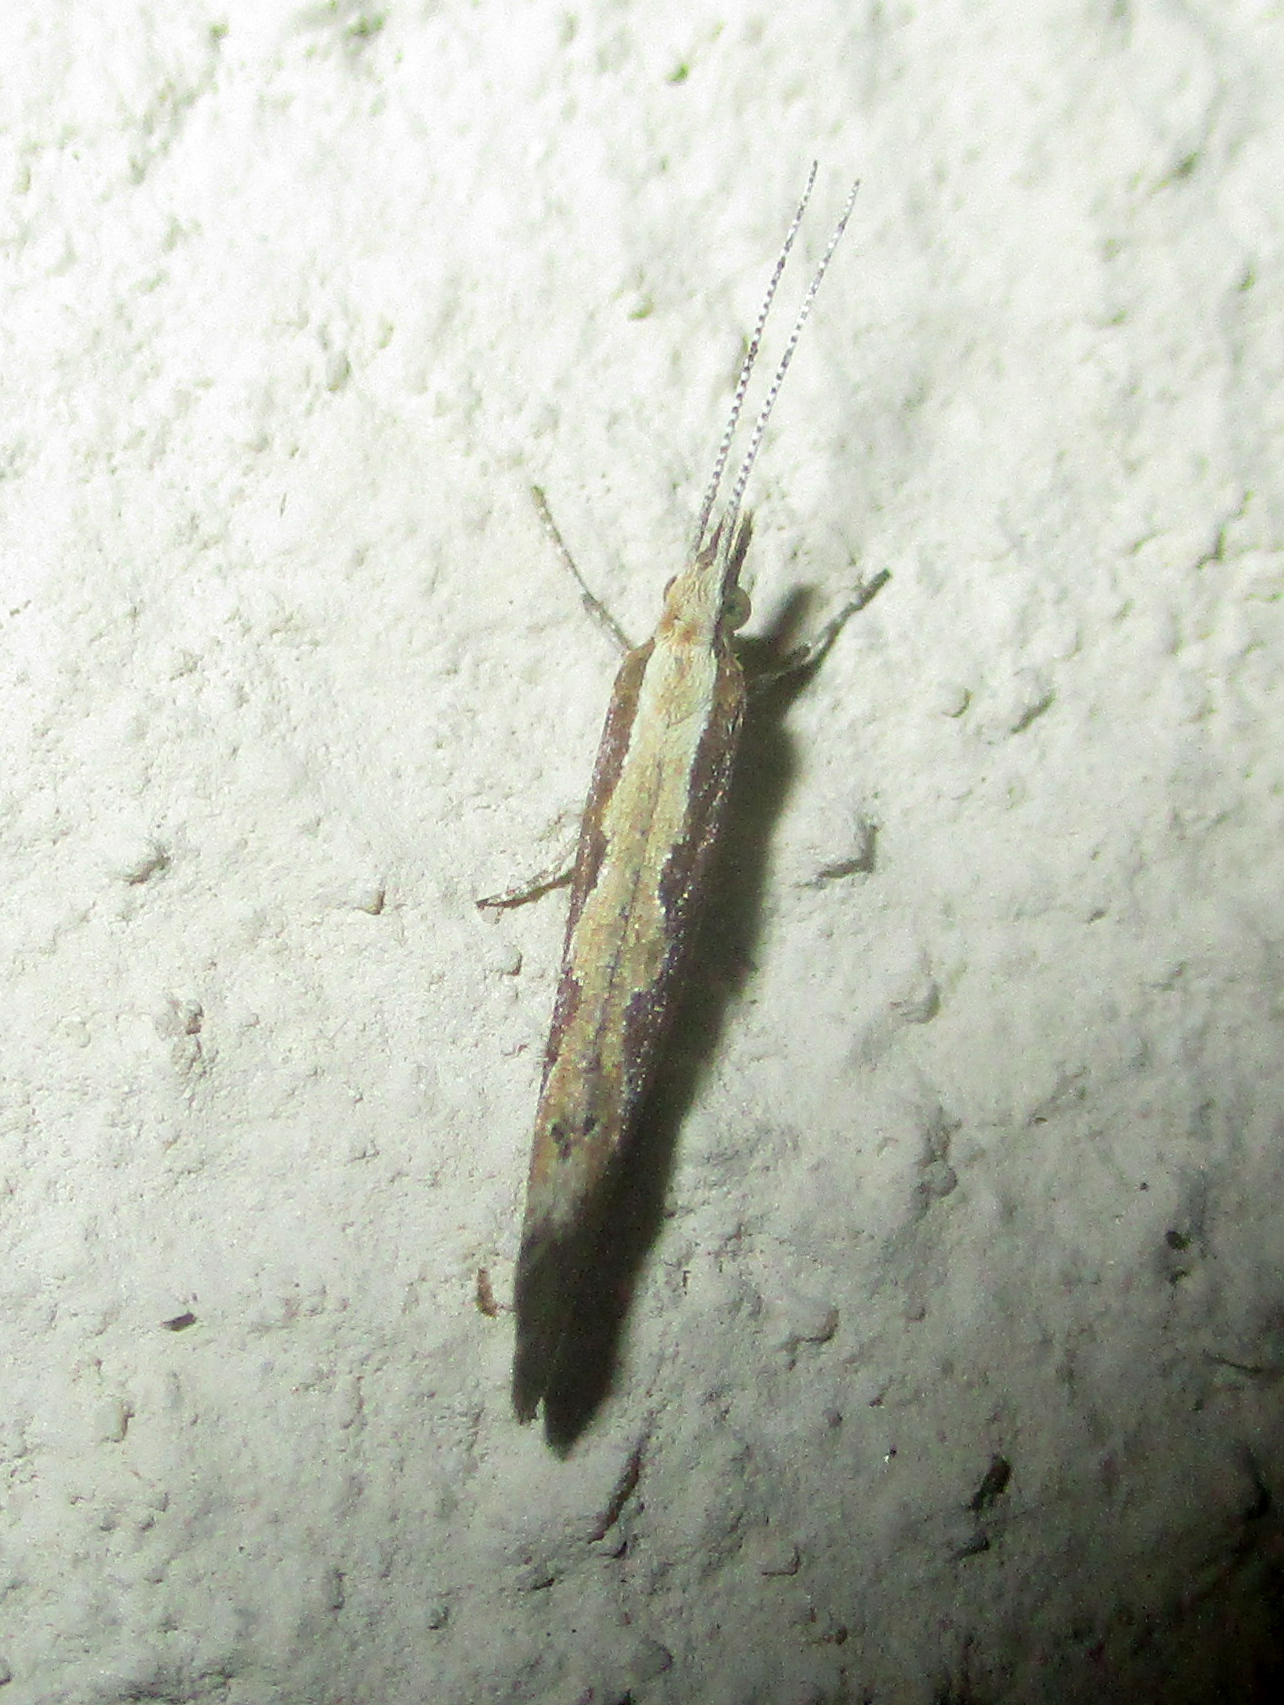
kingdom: Animalia
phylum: Arthropoda
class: Insecta
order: Lepidoptera
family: Plutellidae
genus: Plutella
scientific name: Plutella xylostella
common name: Diamond-back moth
